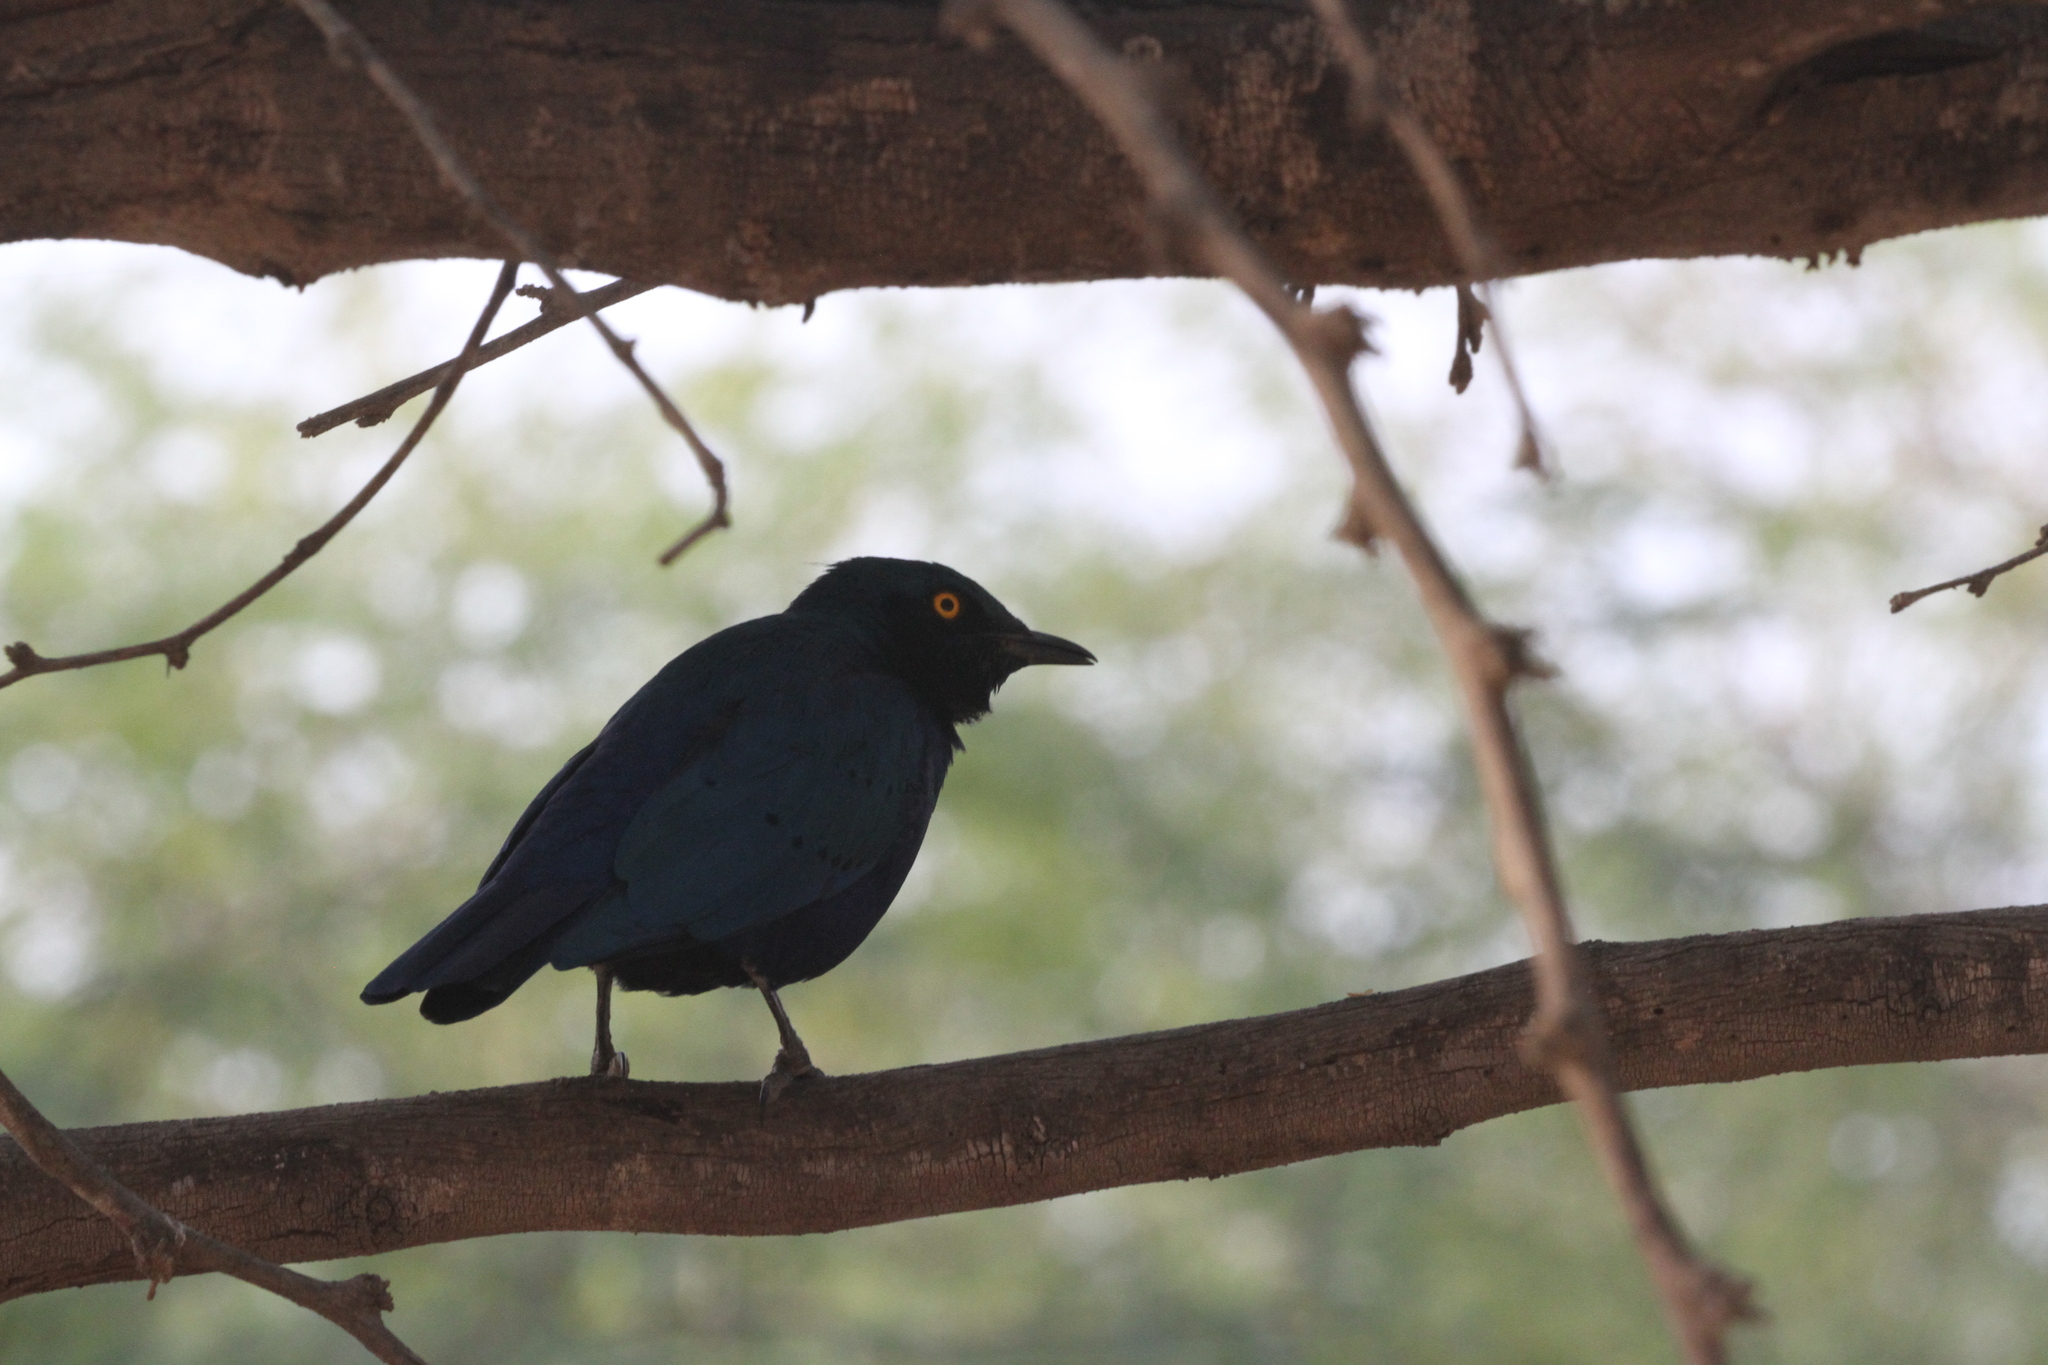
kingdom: Animalia
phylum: Chordata
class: Aves
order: Passeriformes
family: Sturnidae
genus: Lamprotornis
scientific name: Lamprotornis chalybaeus
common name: Greater blue-eared starling
